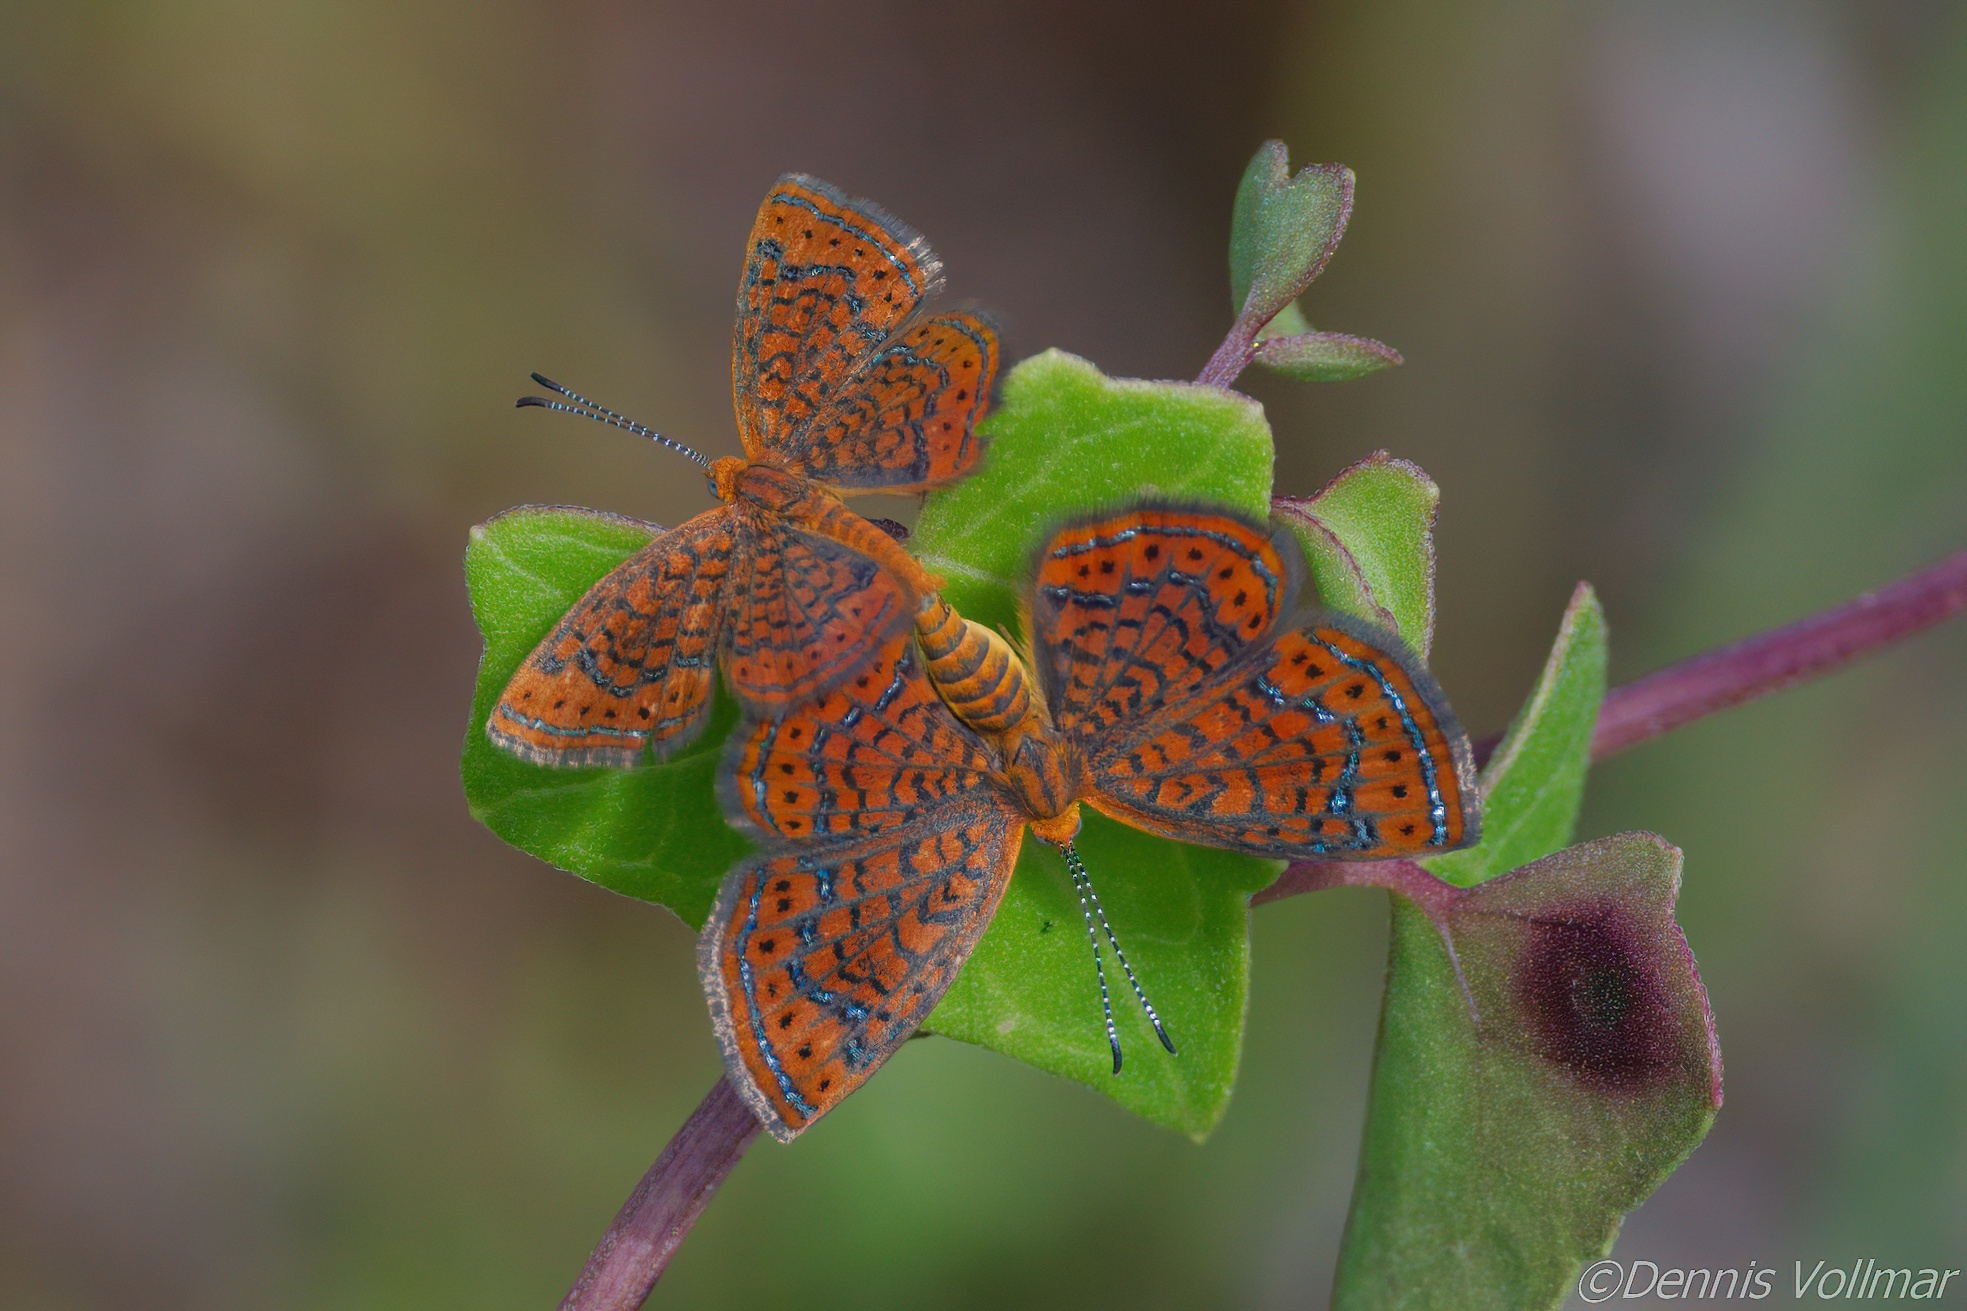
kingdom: Animalia
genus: Calephelis
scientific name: Calephelis virginiensis
